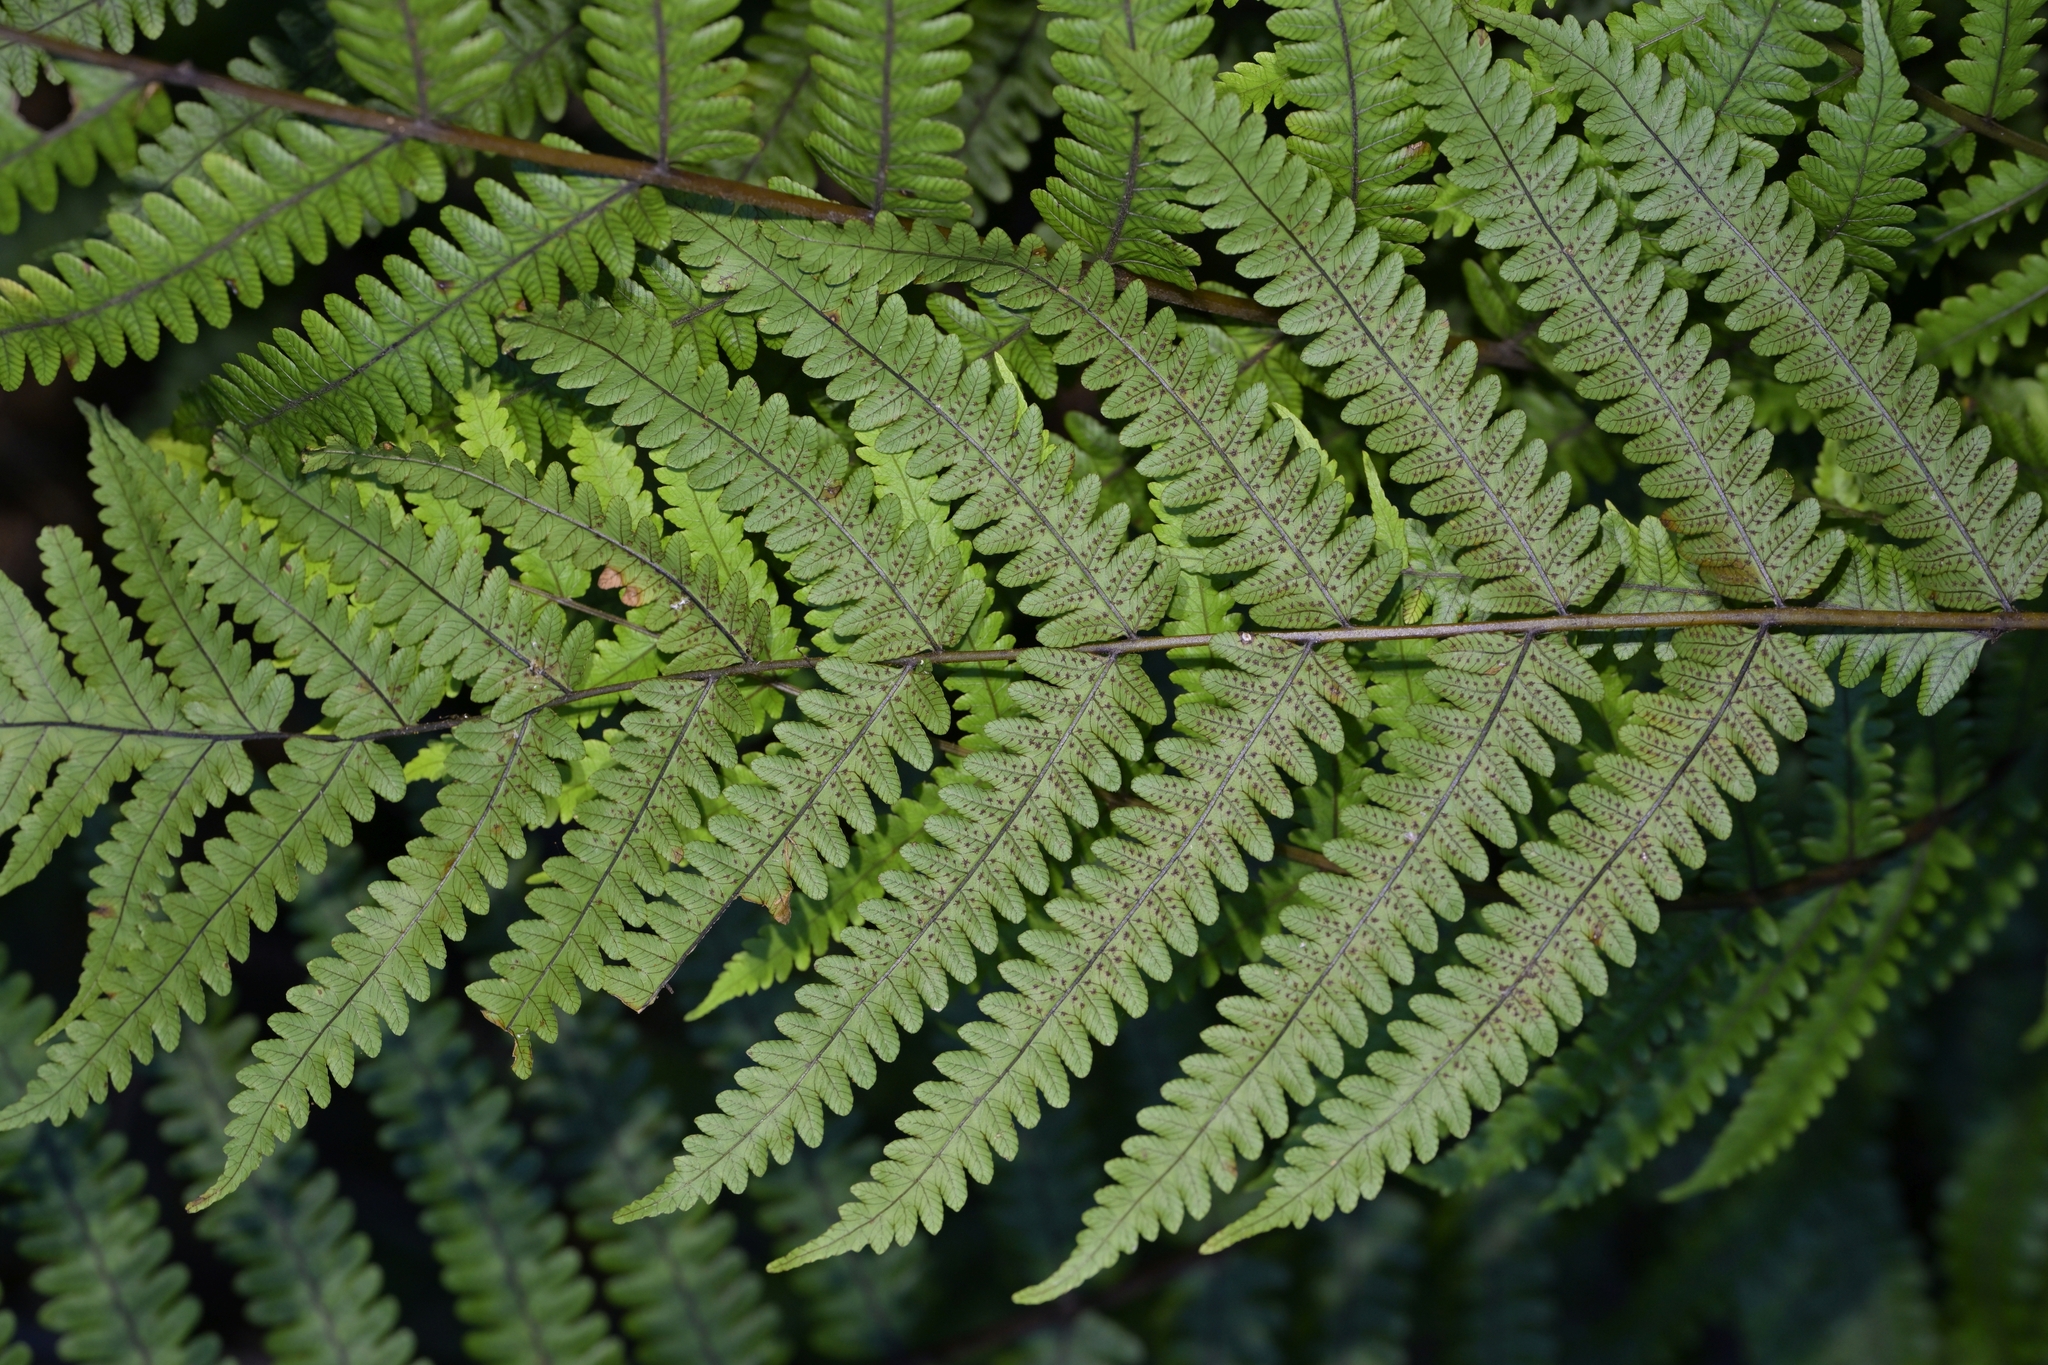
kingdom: Plantae
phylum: Tracheophyta
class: Polypodiopsida
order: Polypodiales
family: Thelypteridaceae
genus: Pakau
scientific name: Pakau pennigera
